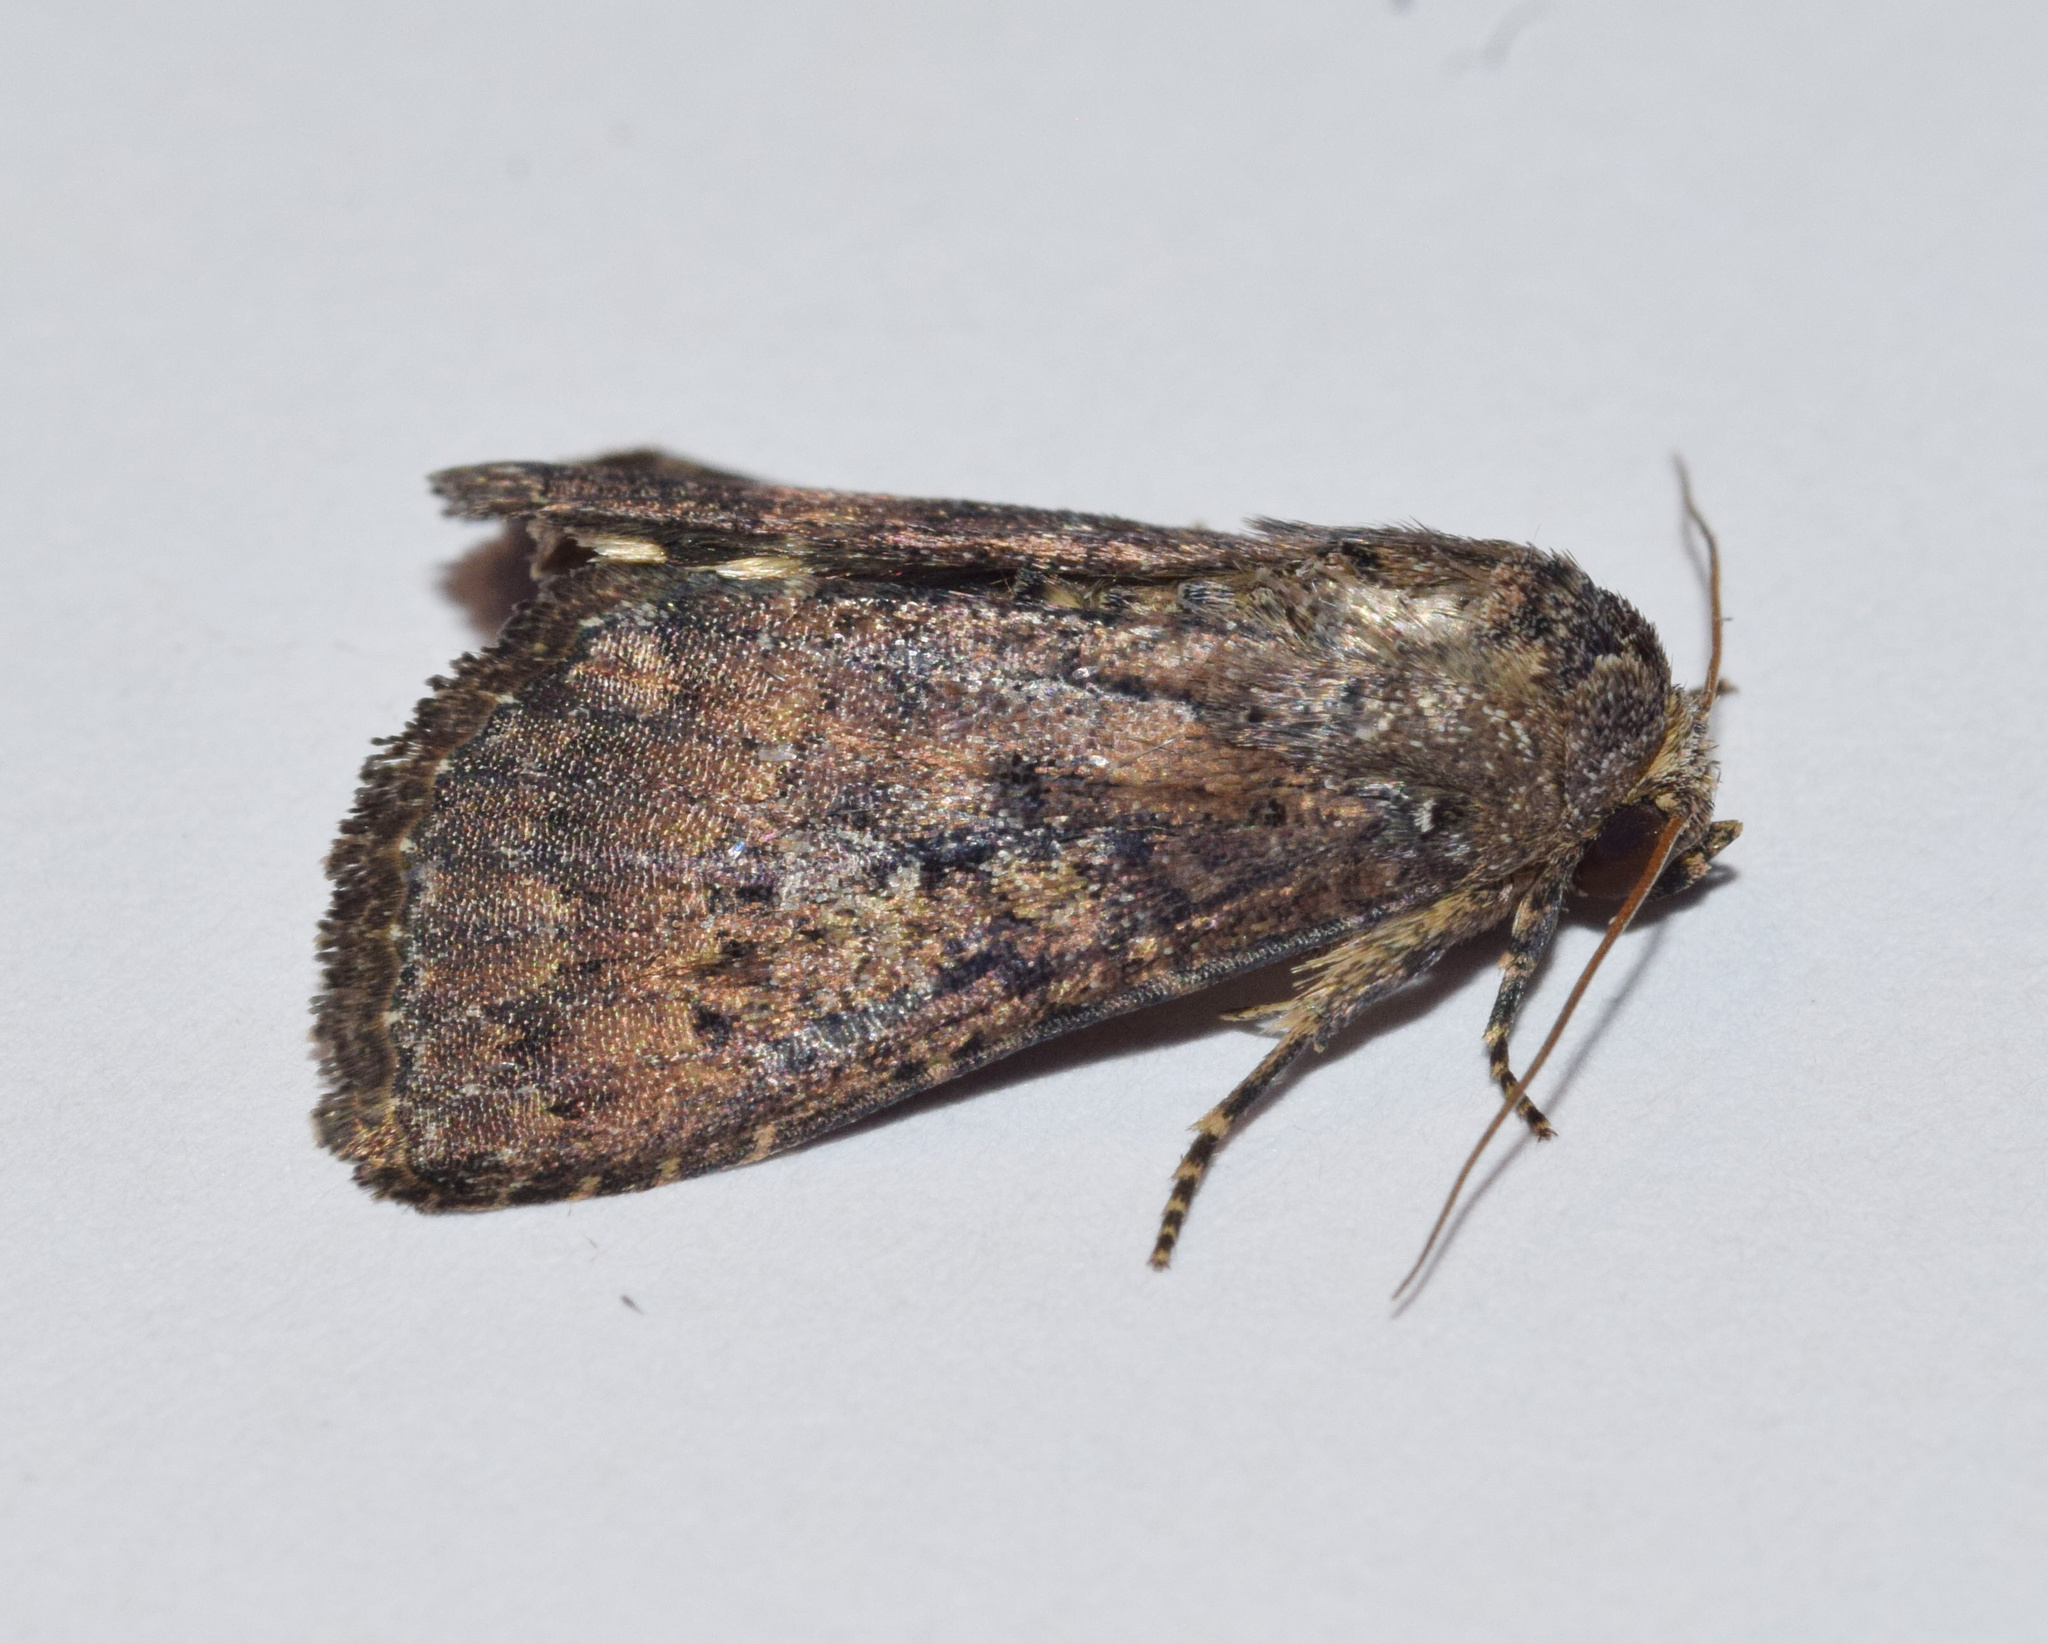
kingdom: Animalia
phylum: Arthropoda
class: Insecta
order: Lepidoptera
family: Noctuidae
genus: Condica
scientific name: Condica capensis
